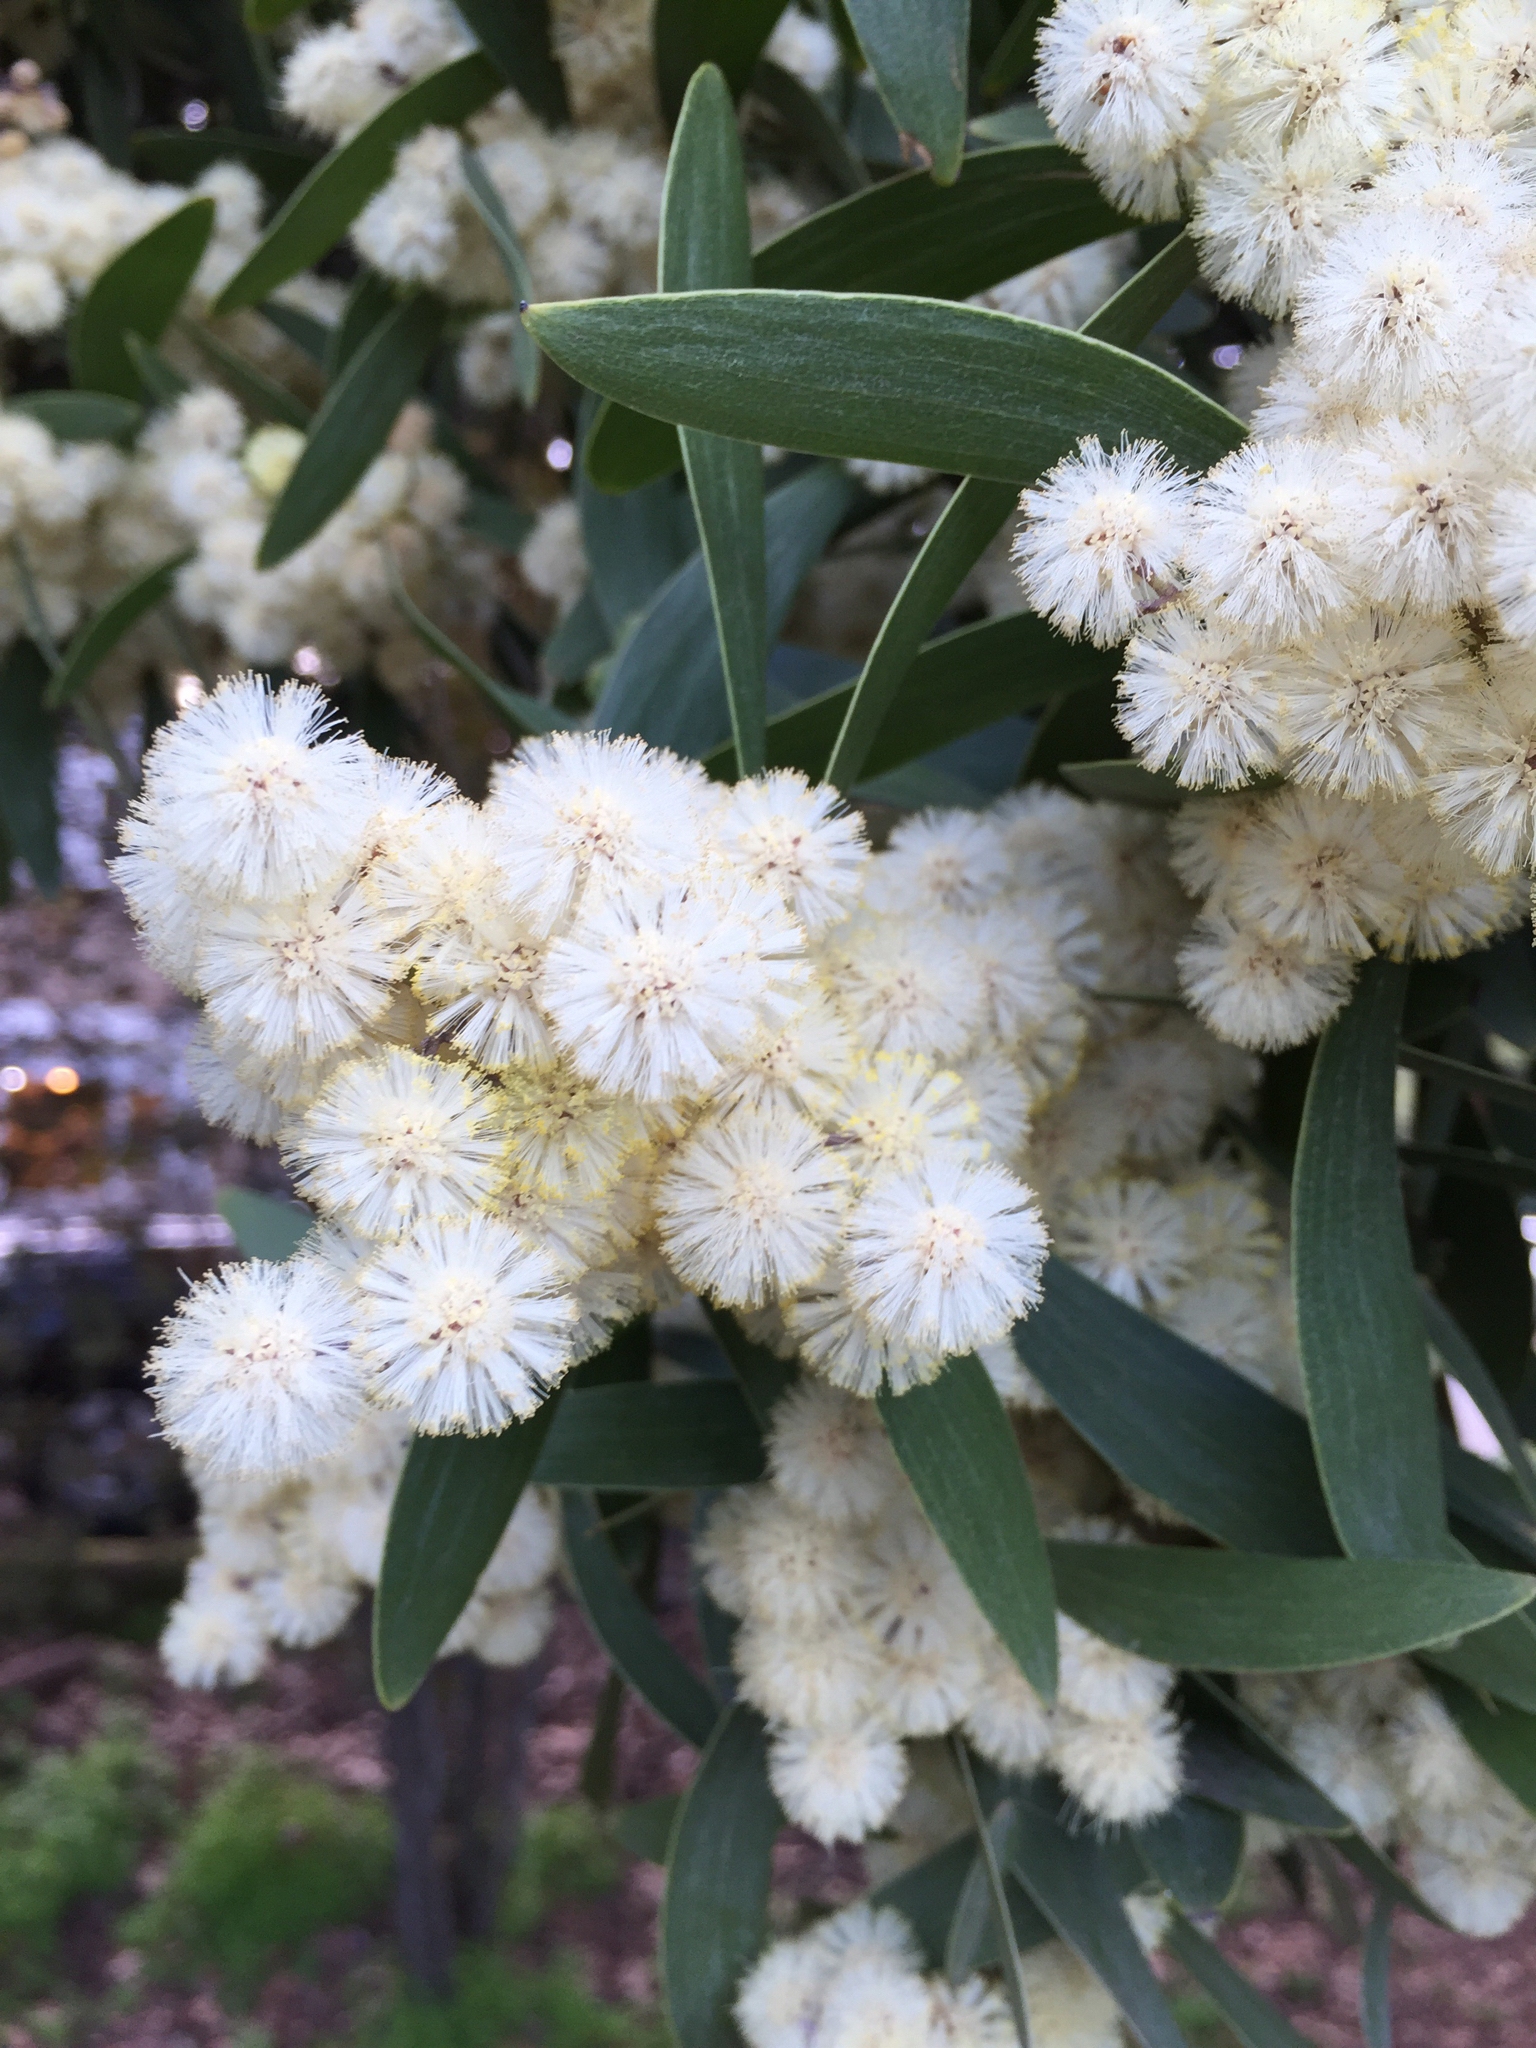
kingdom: Plantae
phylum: Tracheophyta
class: Magnoliopsida
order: Fabales
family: Fabaceae
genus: Acacia
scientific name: Acacia melanoxylon
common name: Blackwood
